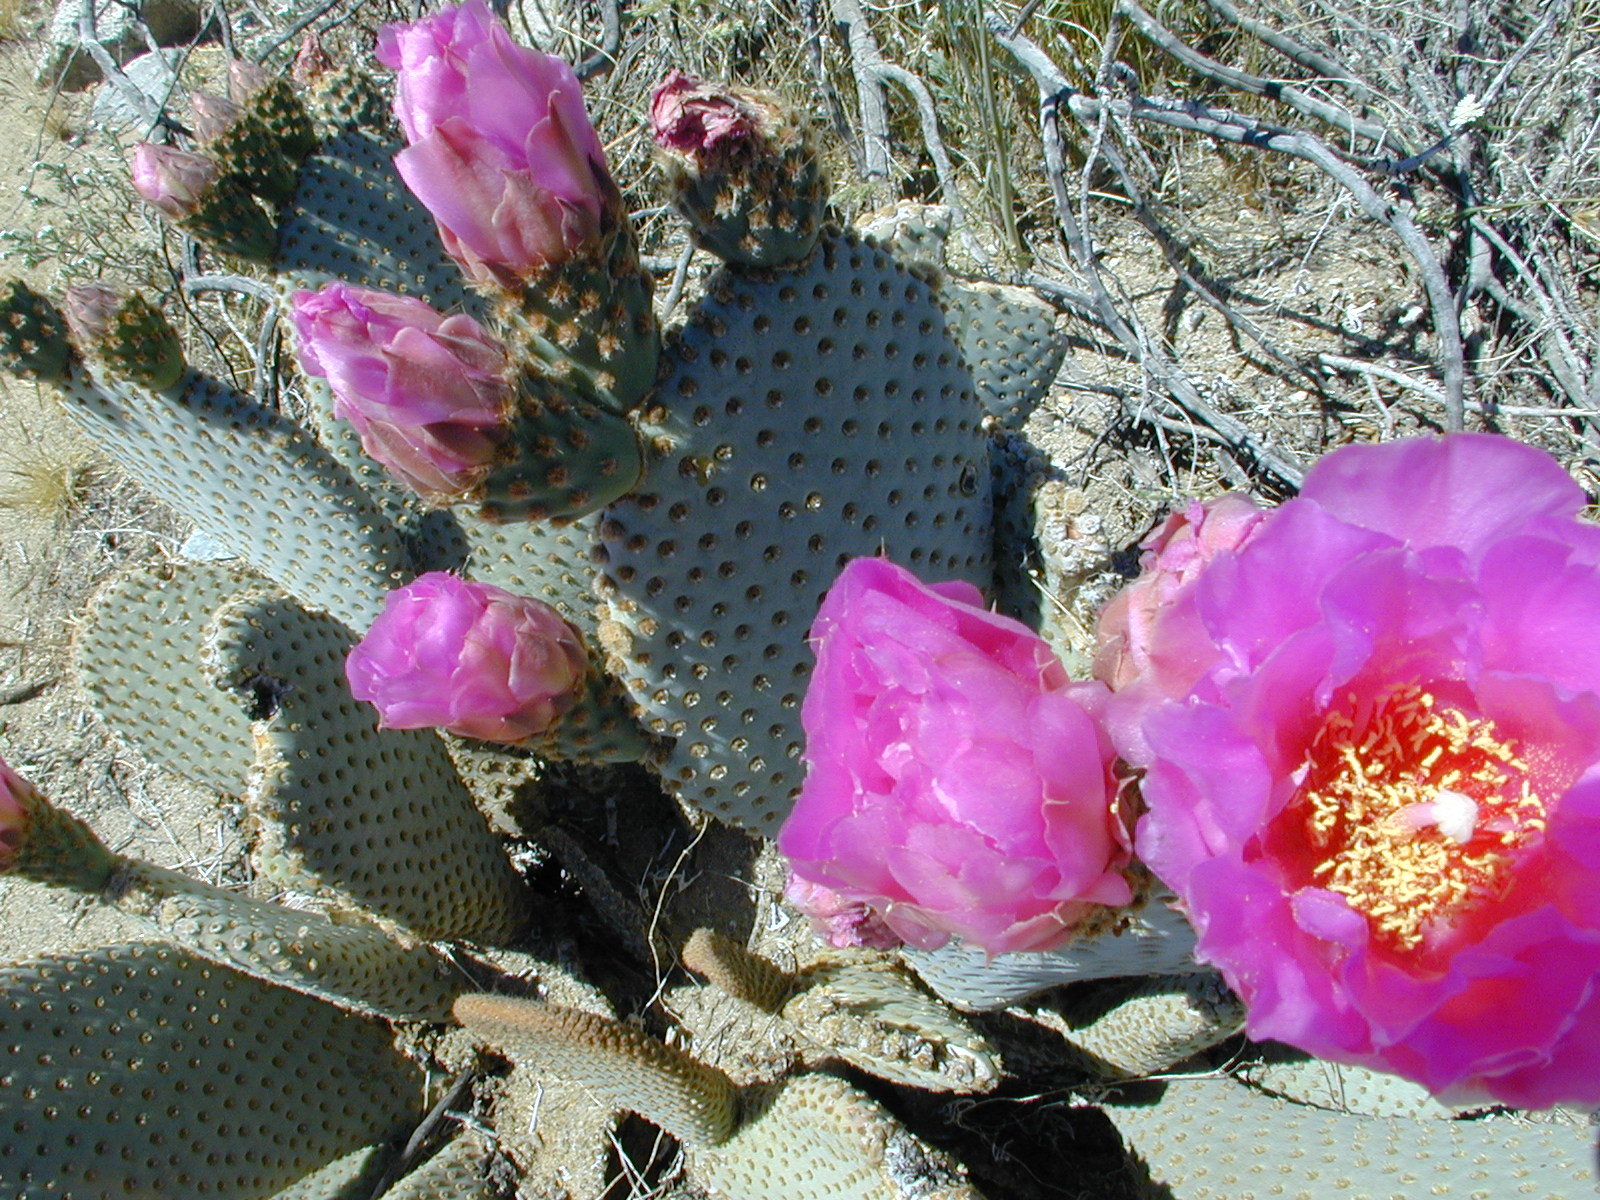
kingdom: Plantae
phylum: Tracheophyta
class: Magnoliopsida
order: Caryophyllales
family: Cactaceae
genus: Opuntia
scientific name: Opuntia basilaris
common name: Beavertail prickly-pear
